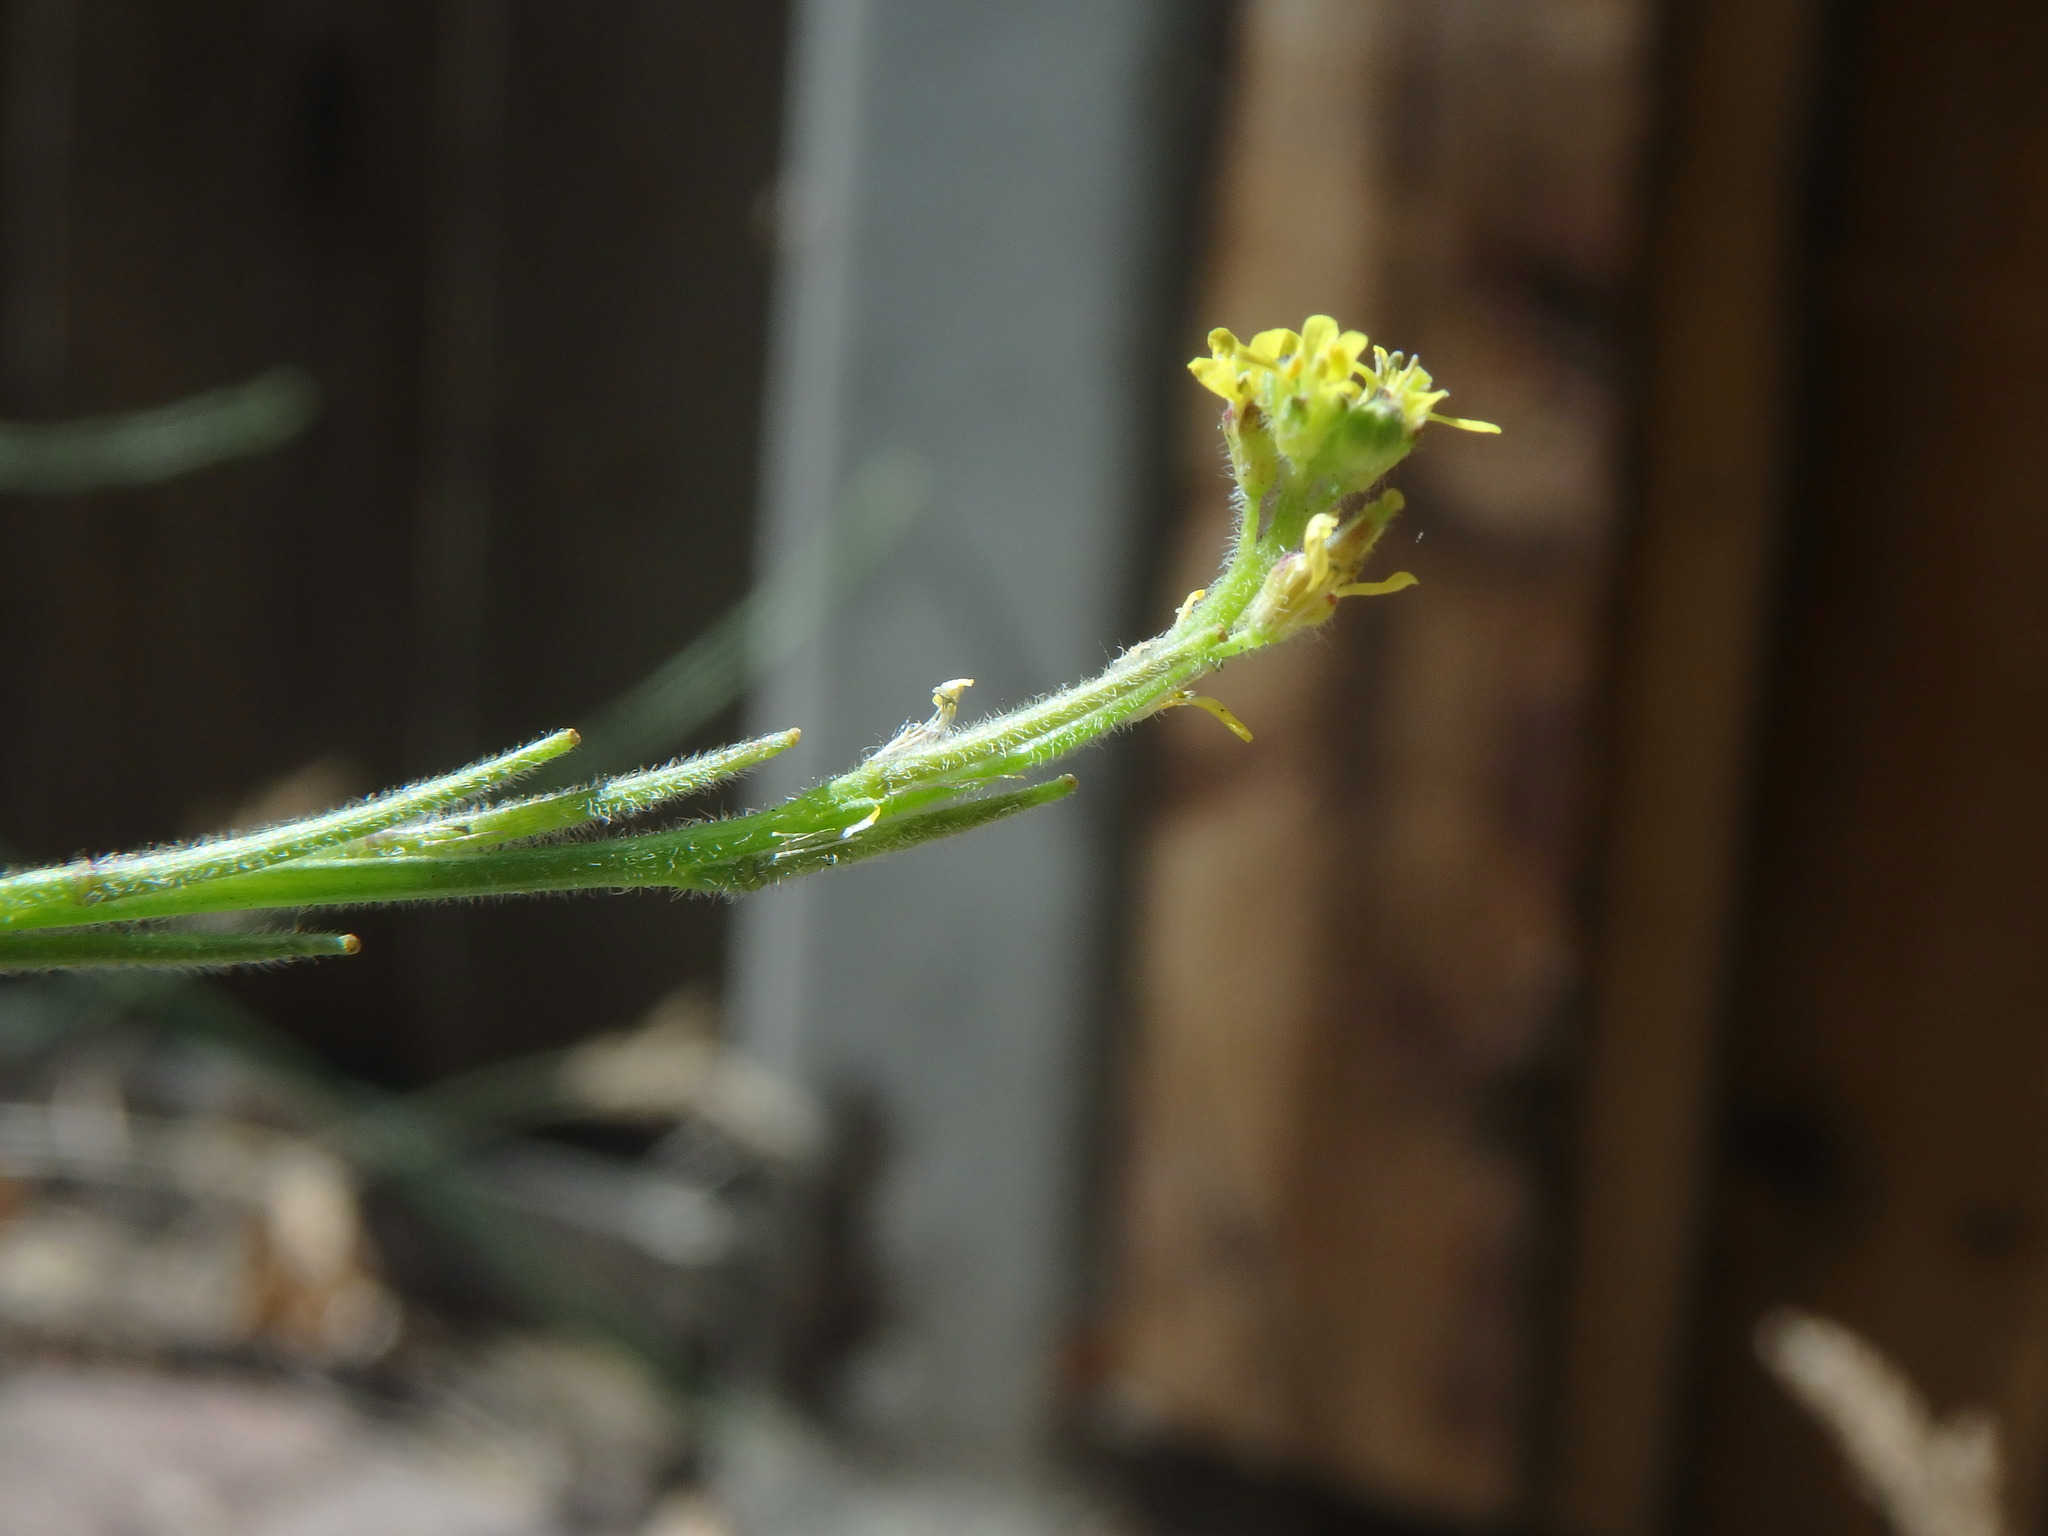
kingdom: Plantae
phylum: Tracheophyta
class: Magnoliopsida
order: Brassicales
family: Brassicaceae
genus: Sisymbrium
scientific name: Sisymbrium officinale
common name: Hedge mustard
